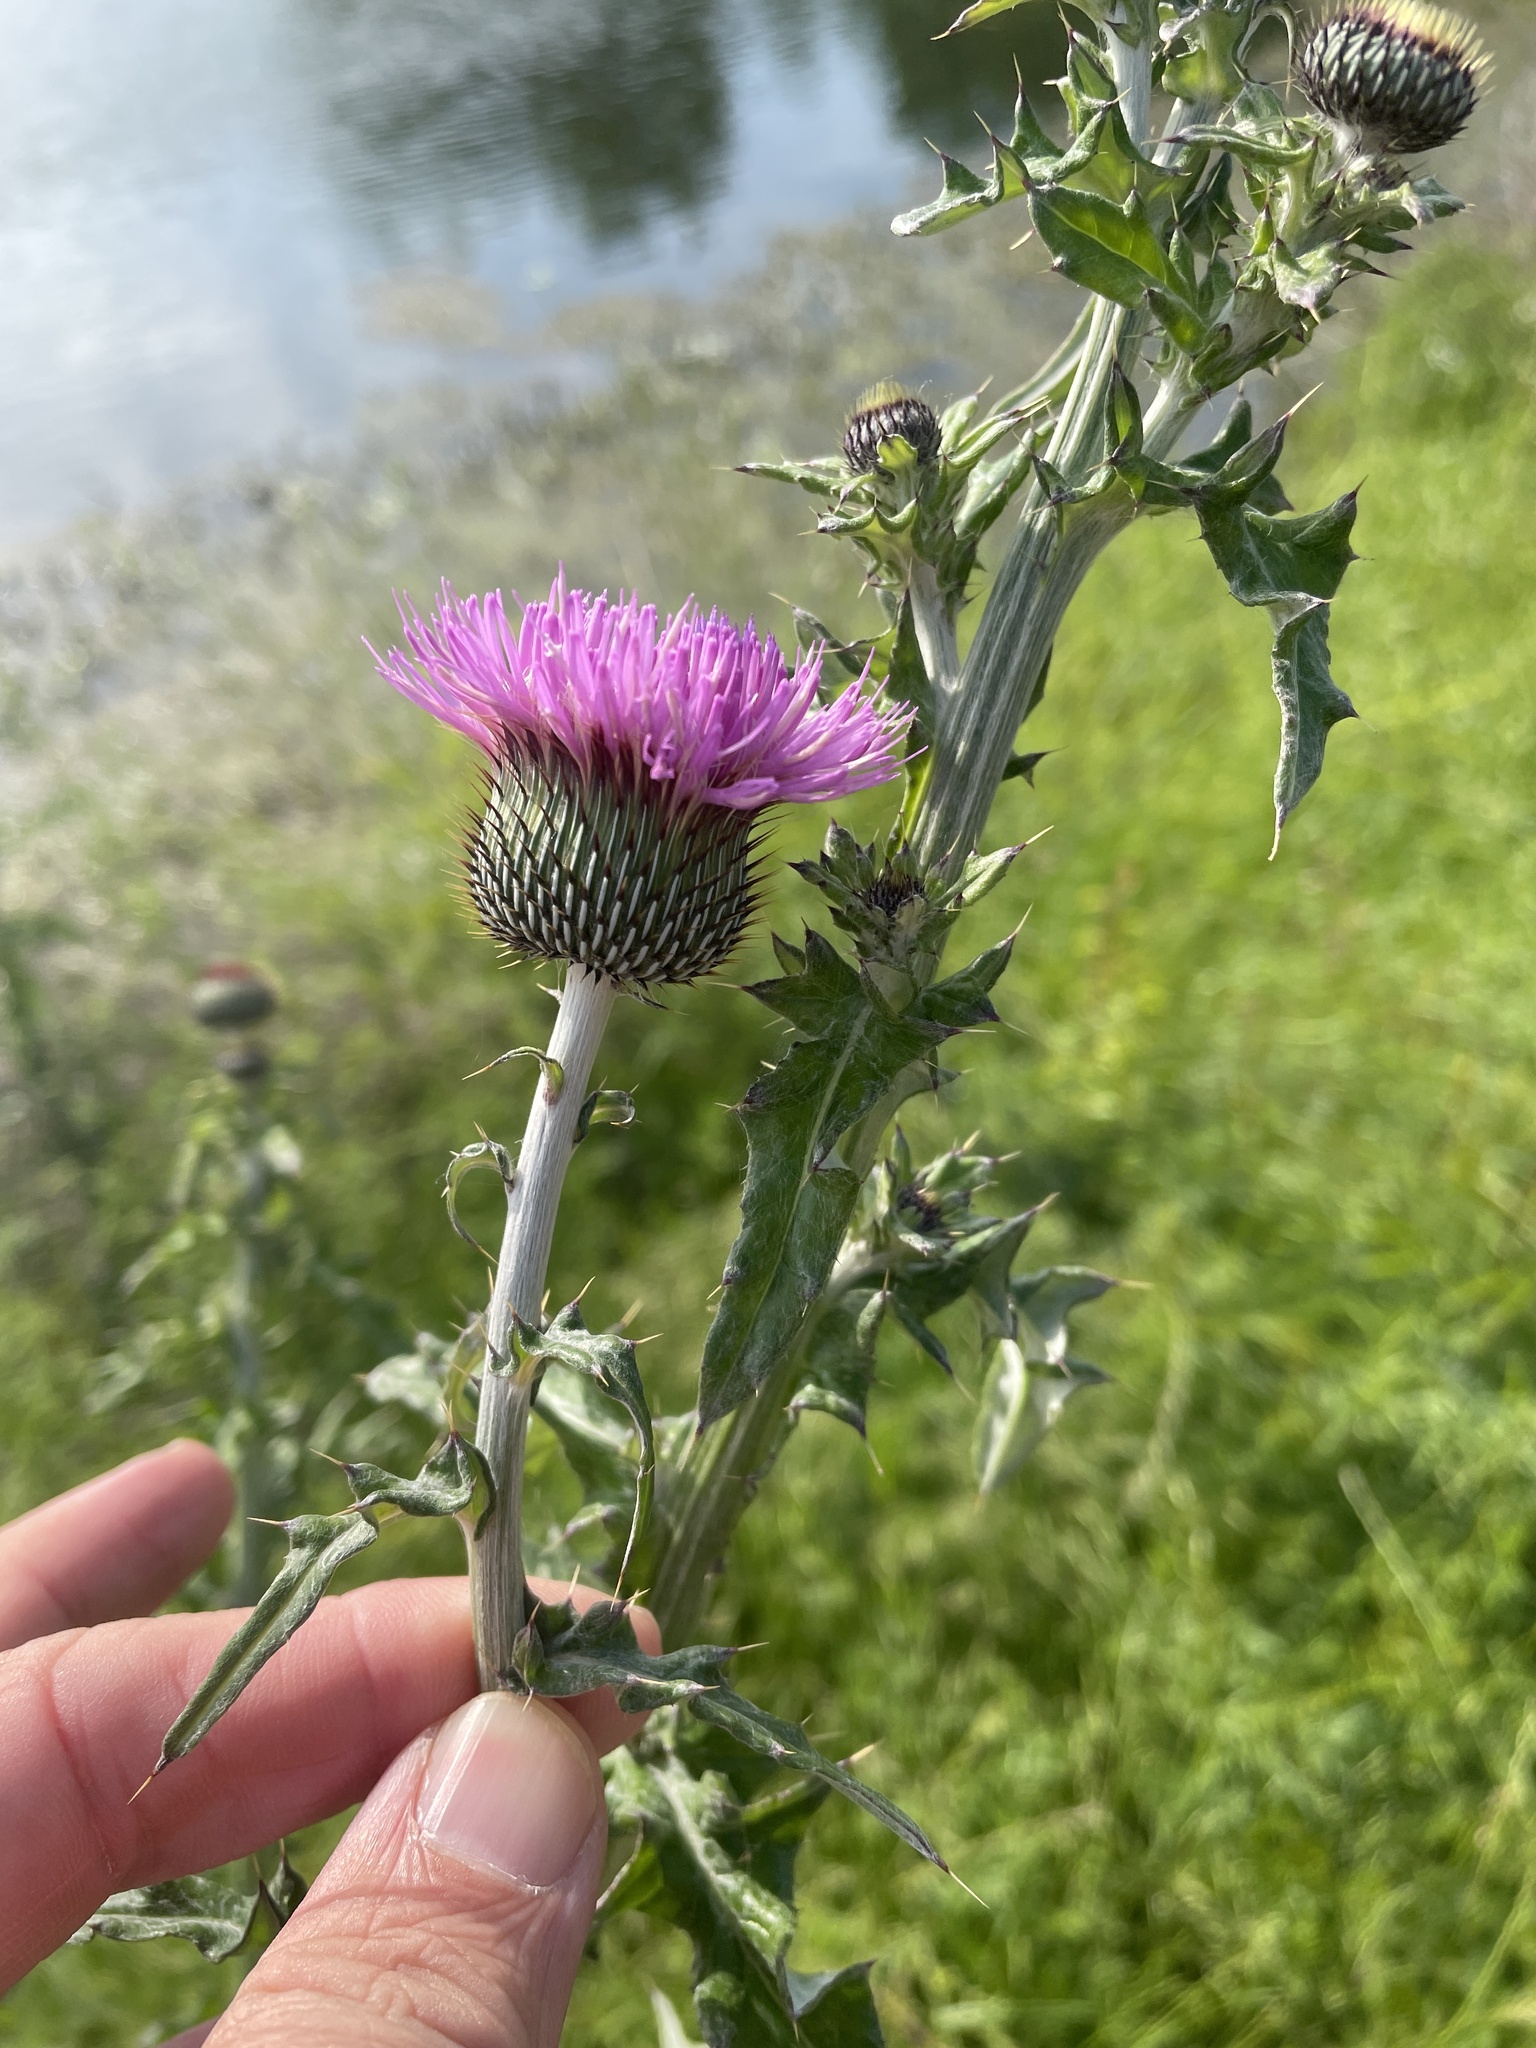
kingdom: Plantae
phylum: Tracheophyta
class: Magnoliopsida
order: Asterales
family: Asteraceae
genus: Cirsium
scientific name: Cirsium engelmannii
